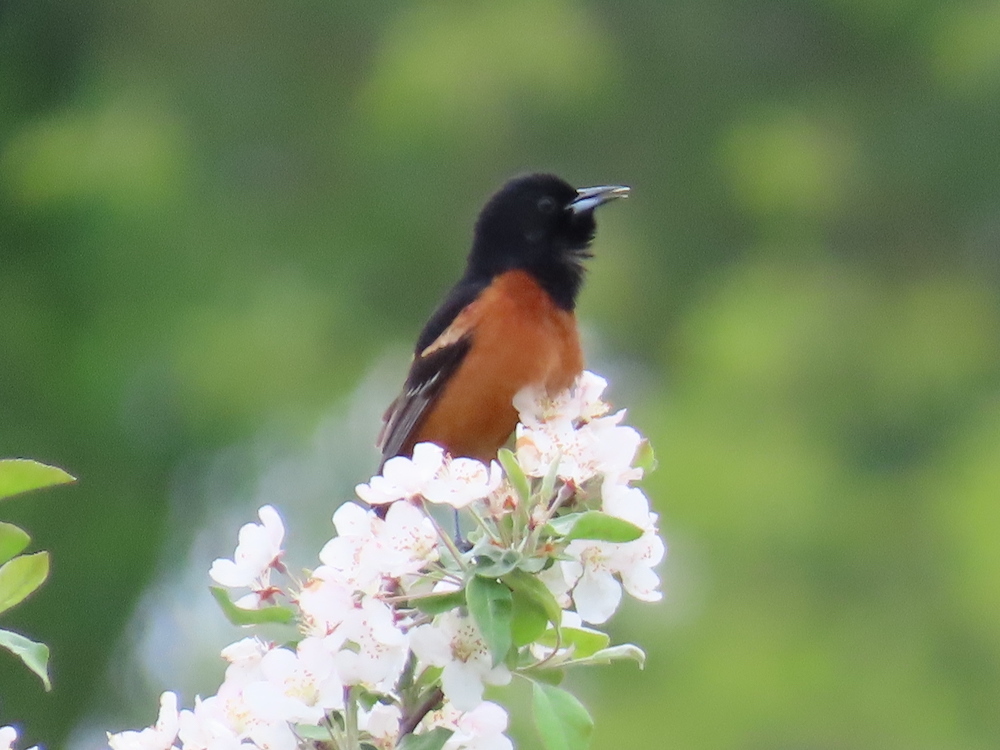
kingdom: Animalia
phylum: Chordata
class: Aves
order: Passeriformes
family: Icteridae
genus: Icterus
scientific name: Icterus spurius
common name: Orchard oriole
